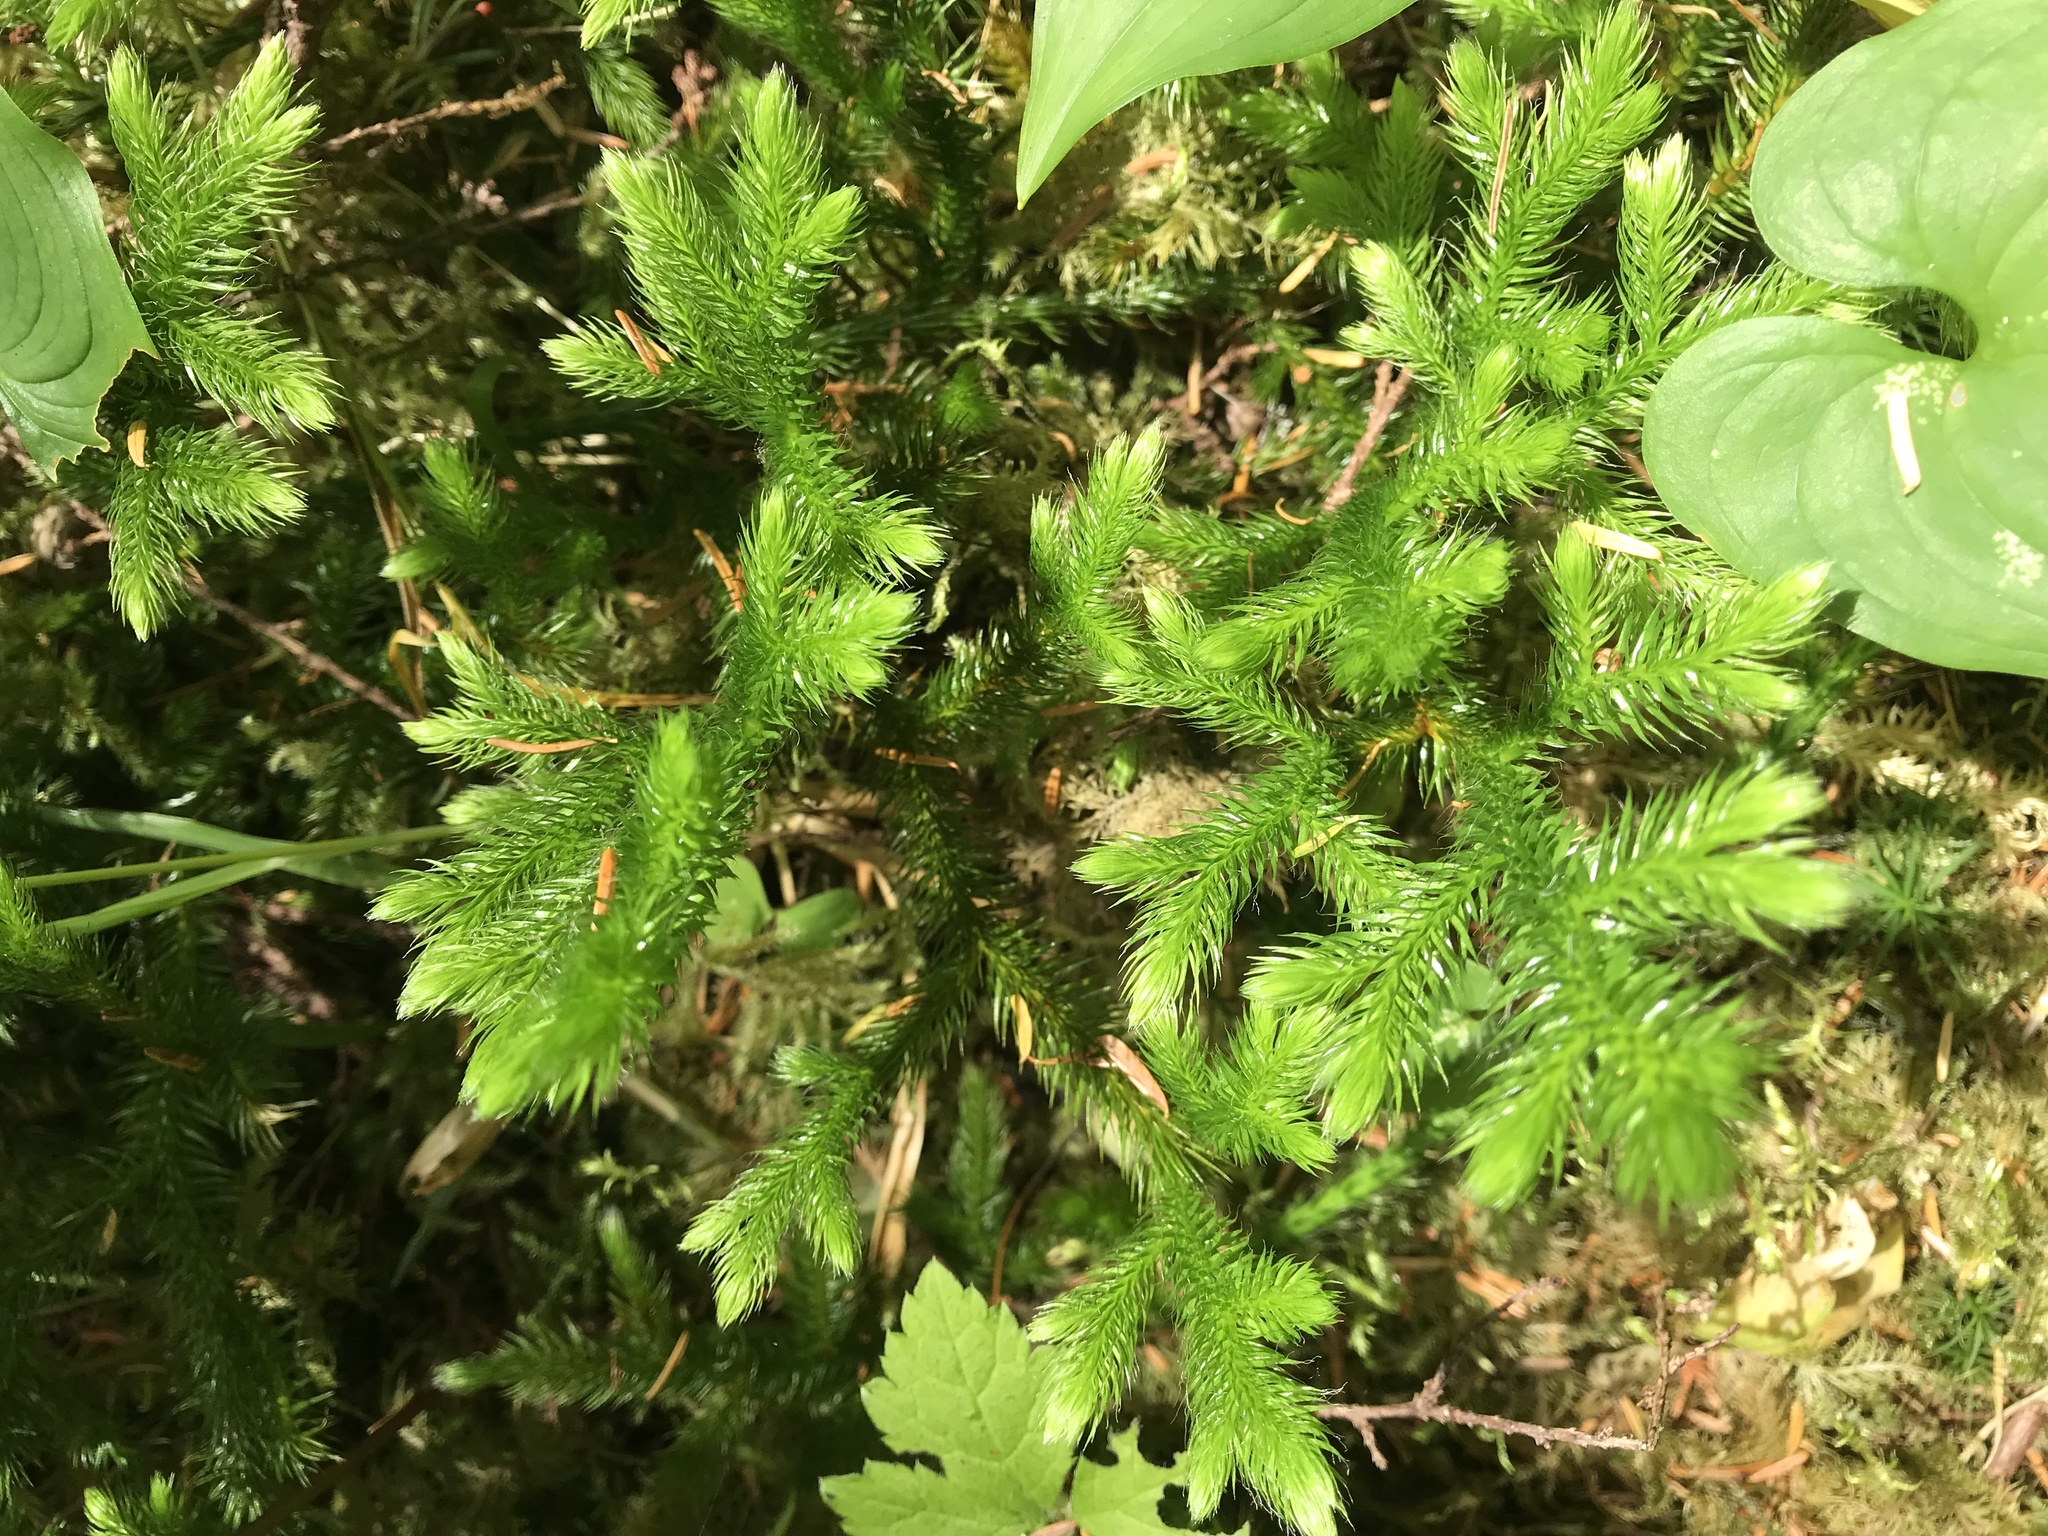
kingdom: Plantae
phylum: Tracheophyta
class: Lycopodiopsida
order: Lycopodiales
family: Lycopodiaceae
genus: Lycopodium
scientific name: Lycopodium clavatum
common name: Stag's-horn clubmoss
